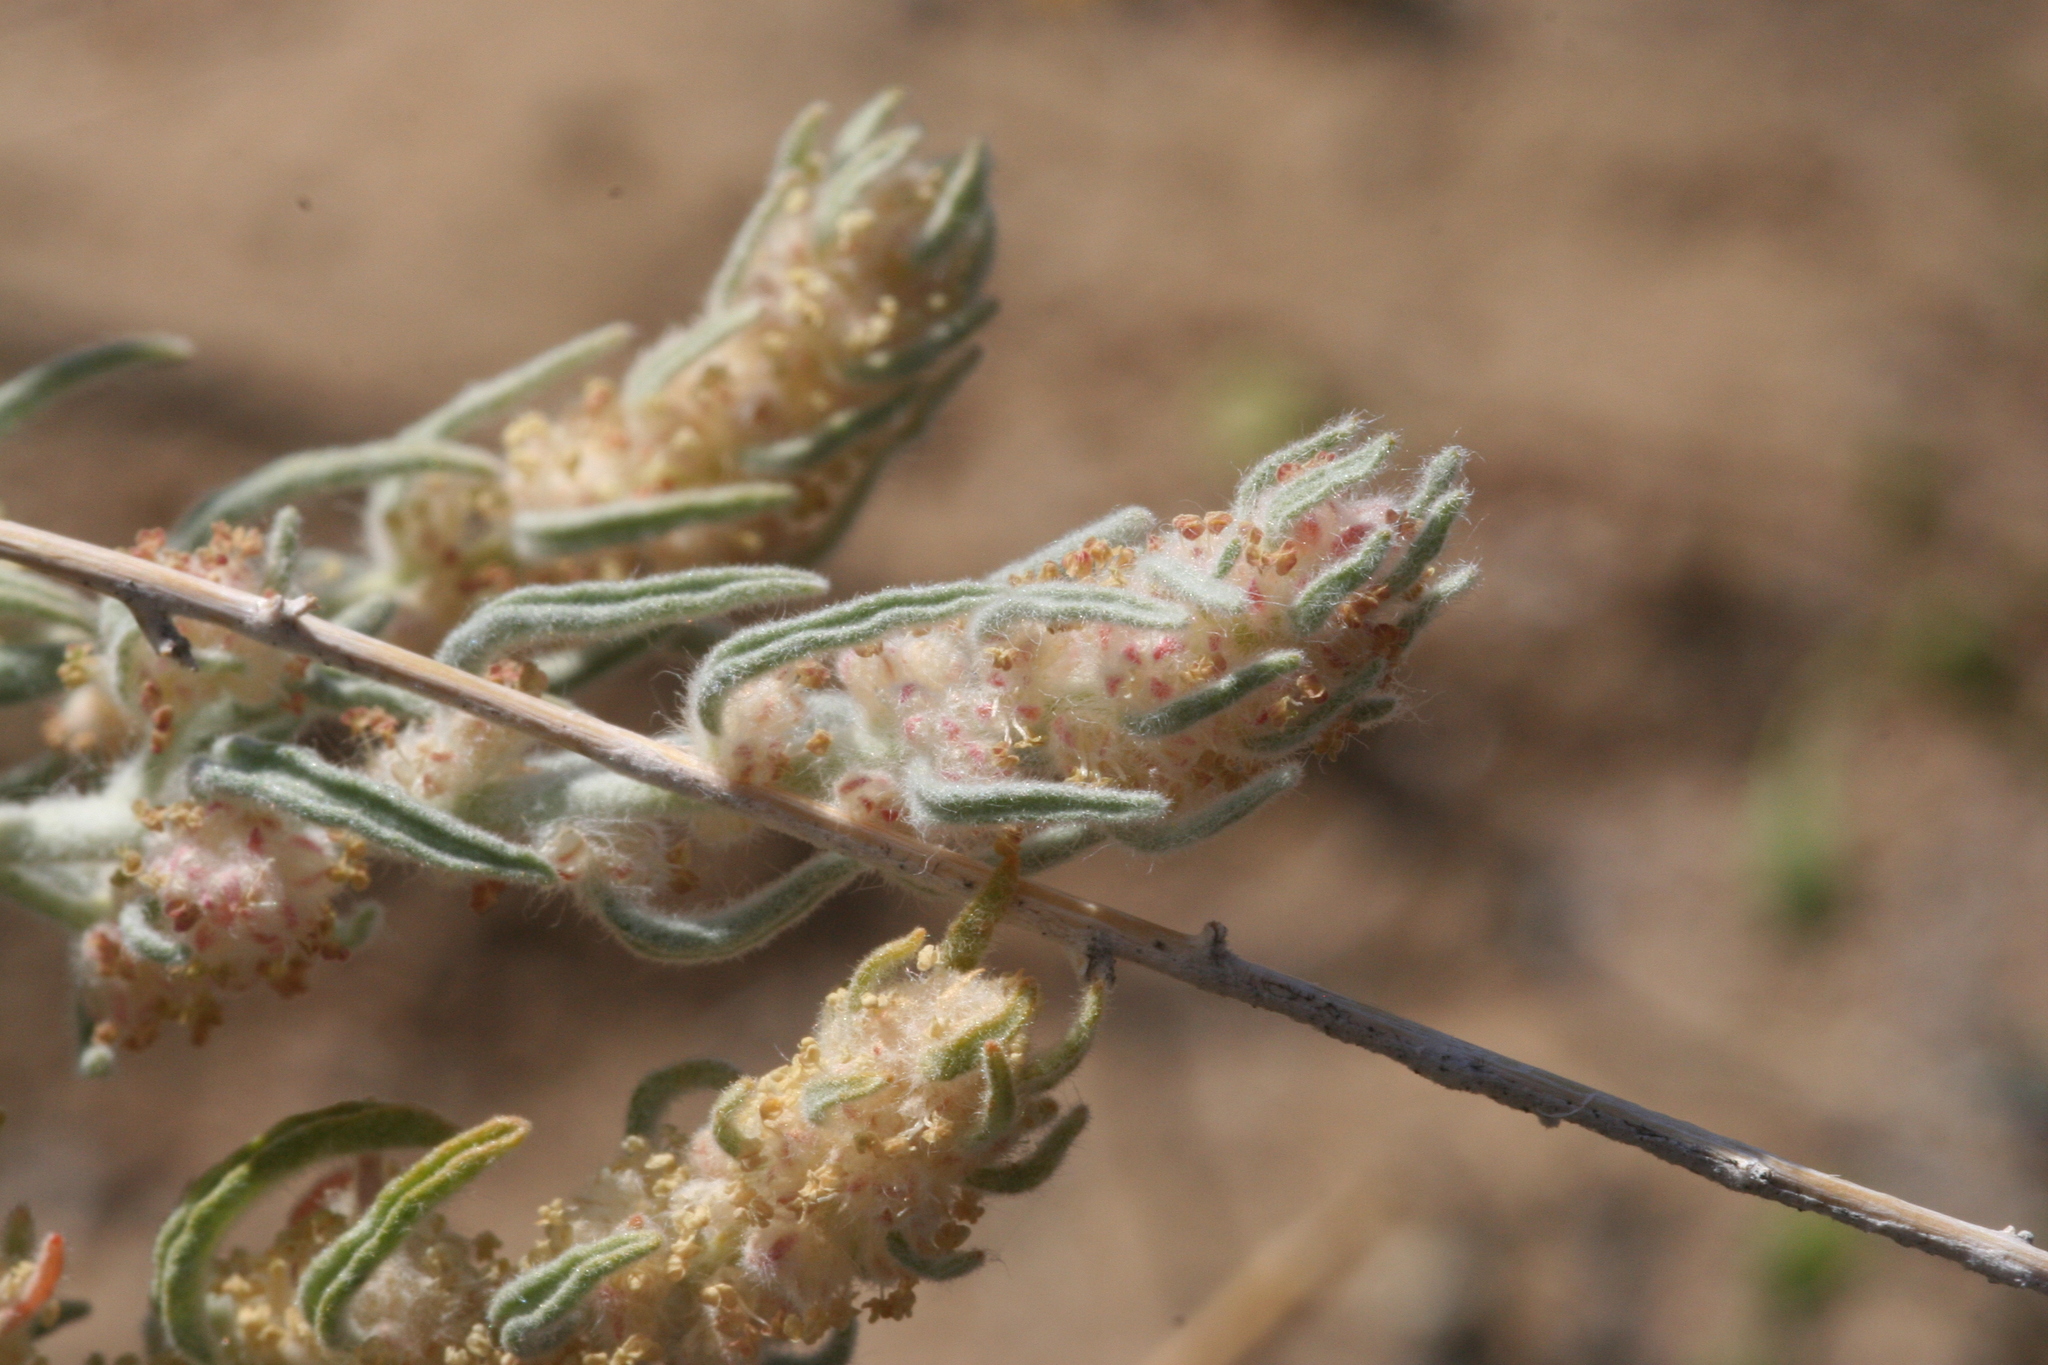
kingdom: Plantae
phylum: Tracheophyta
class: Magnoliopsida
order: Caryophyllales
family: Amaranthaceae
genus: Krascheninnikovia
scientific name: Krascheninnikovia lanata
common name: Winterfat
